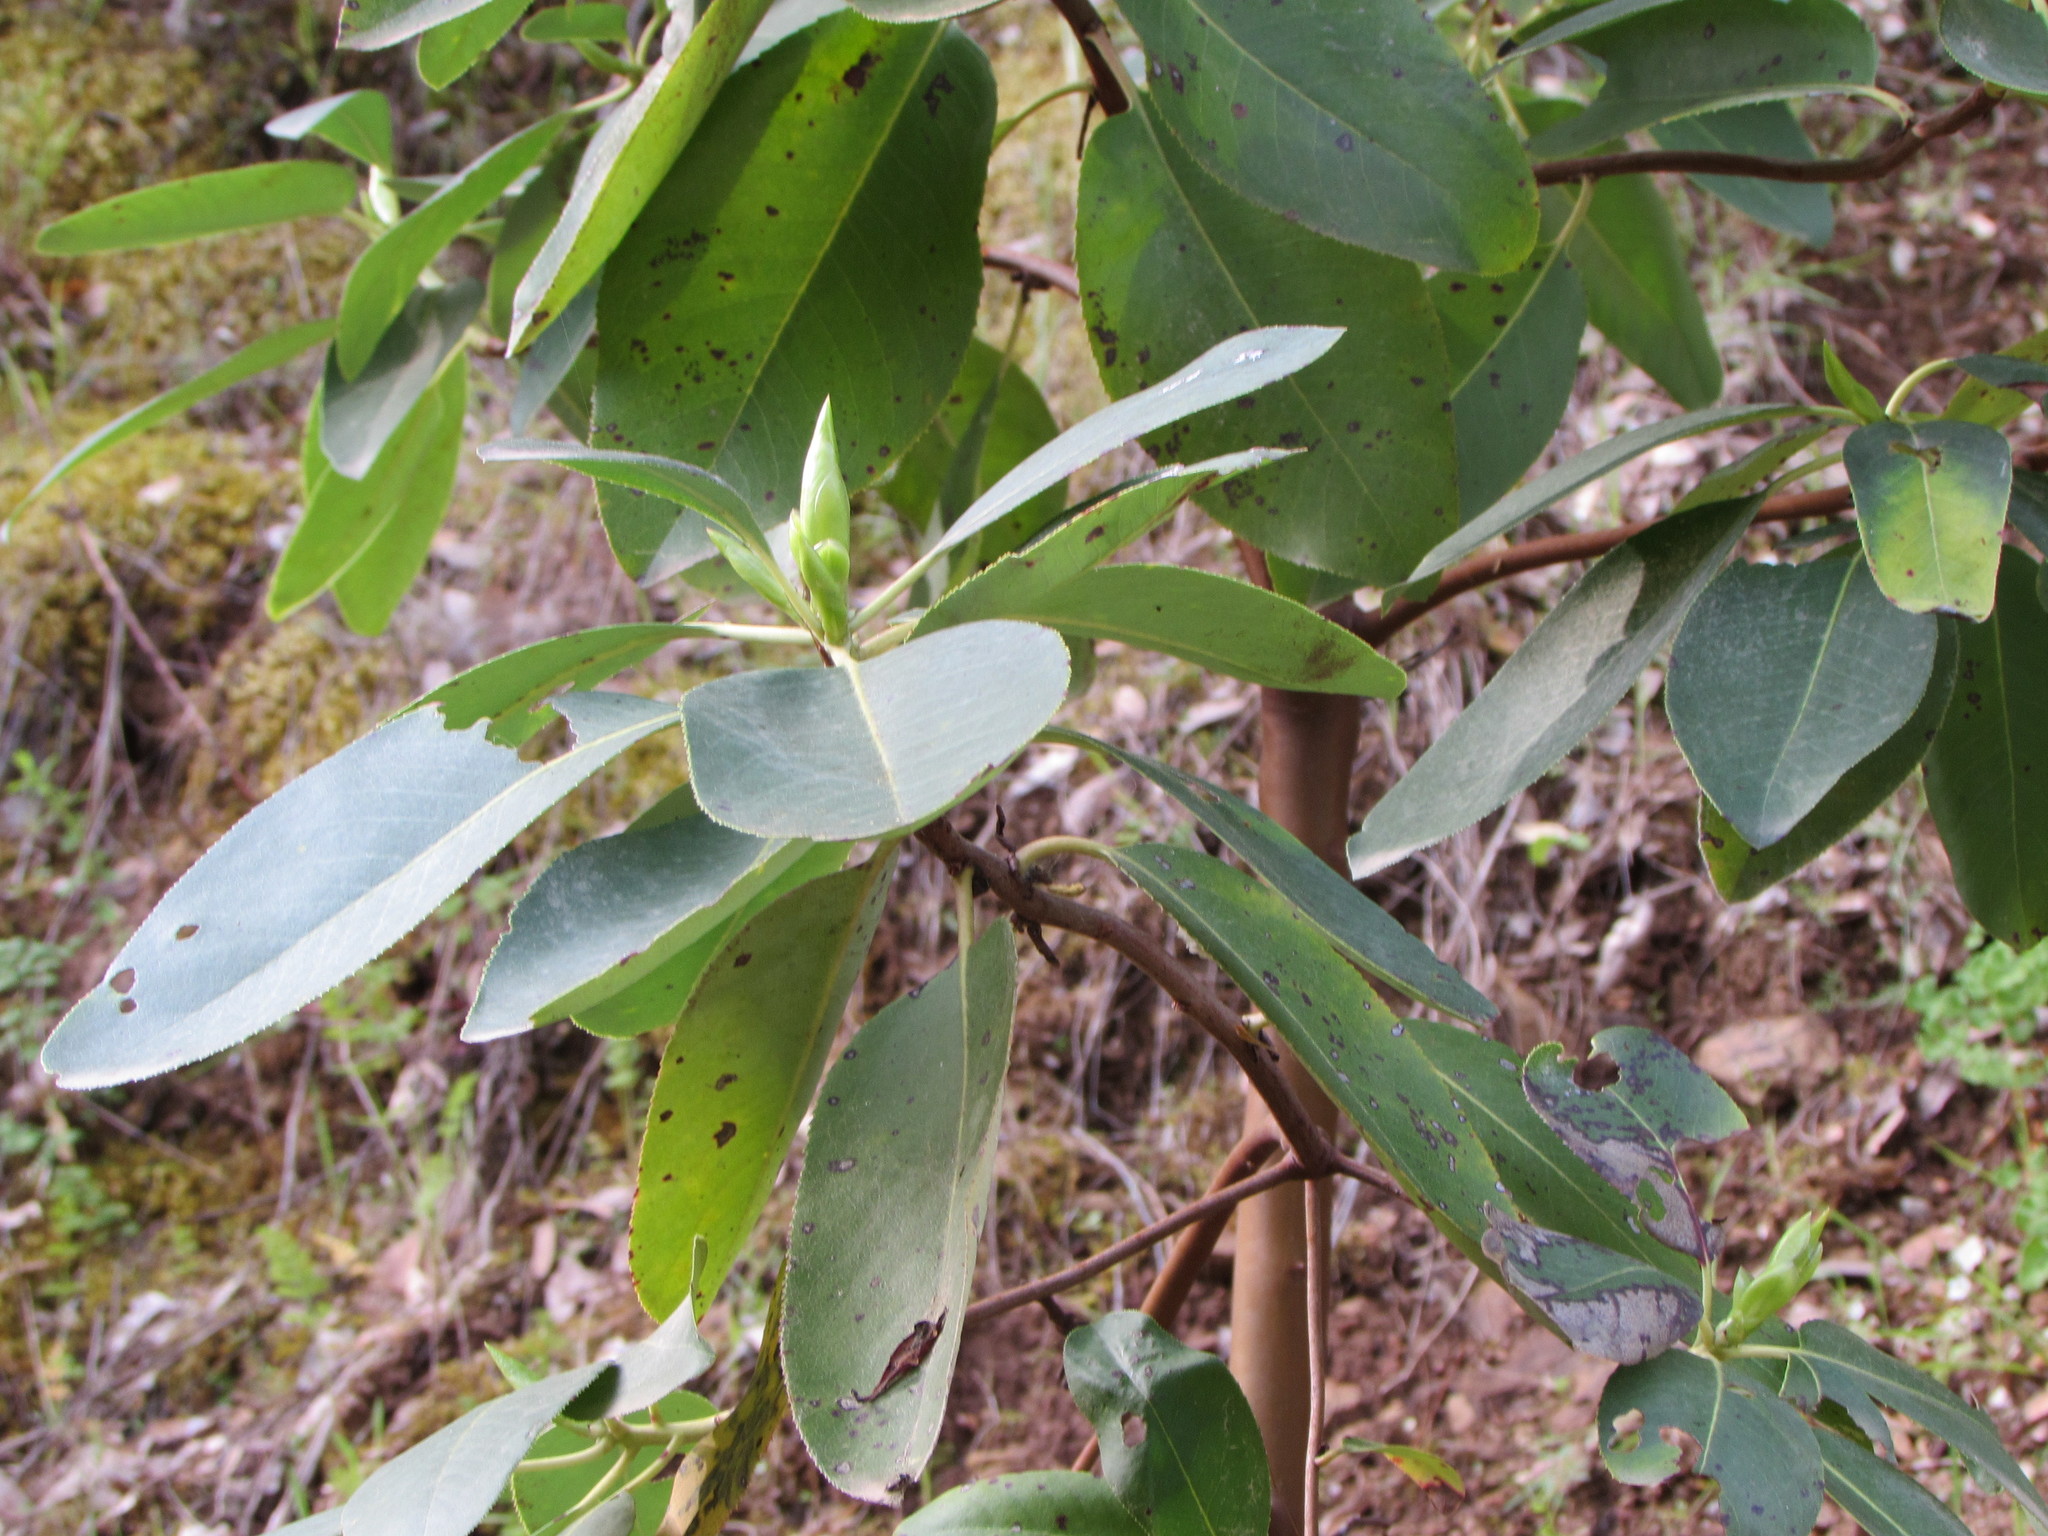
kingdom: Plantae
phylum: Tracheophyta
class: Magnoliopsida
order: Ericales
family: Ericaceae
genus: Arbutus
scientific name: Arbutus menziesii
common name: Pacific madrone
